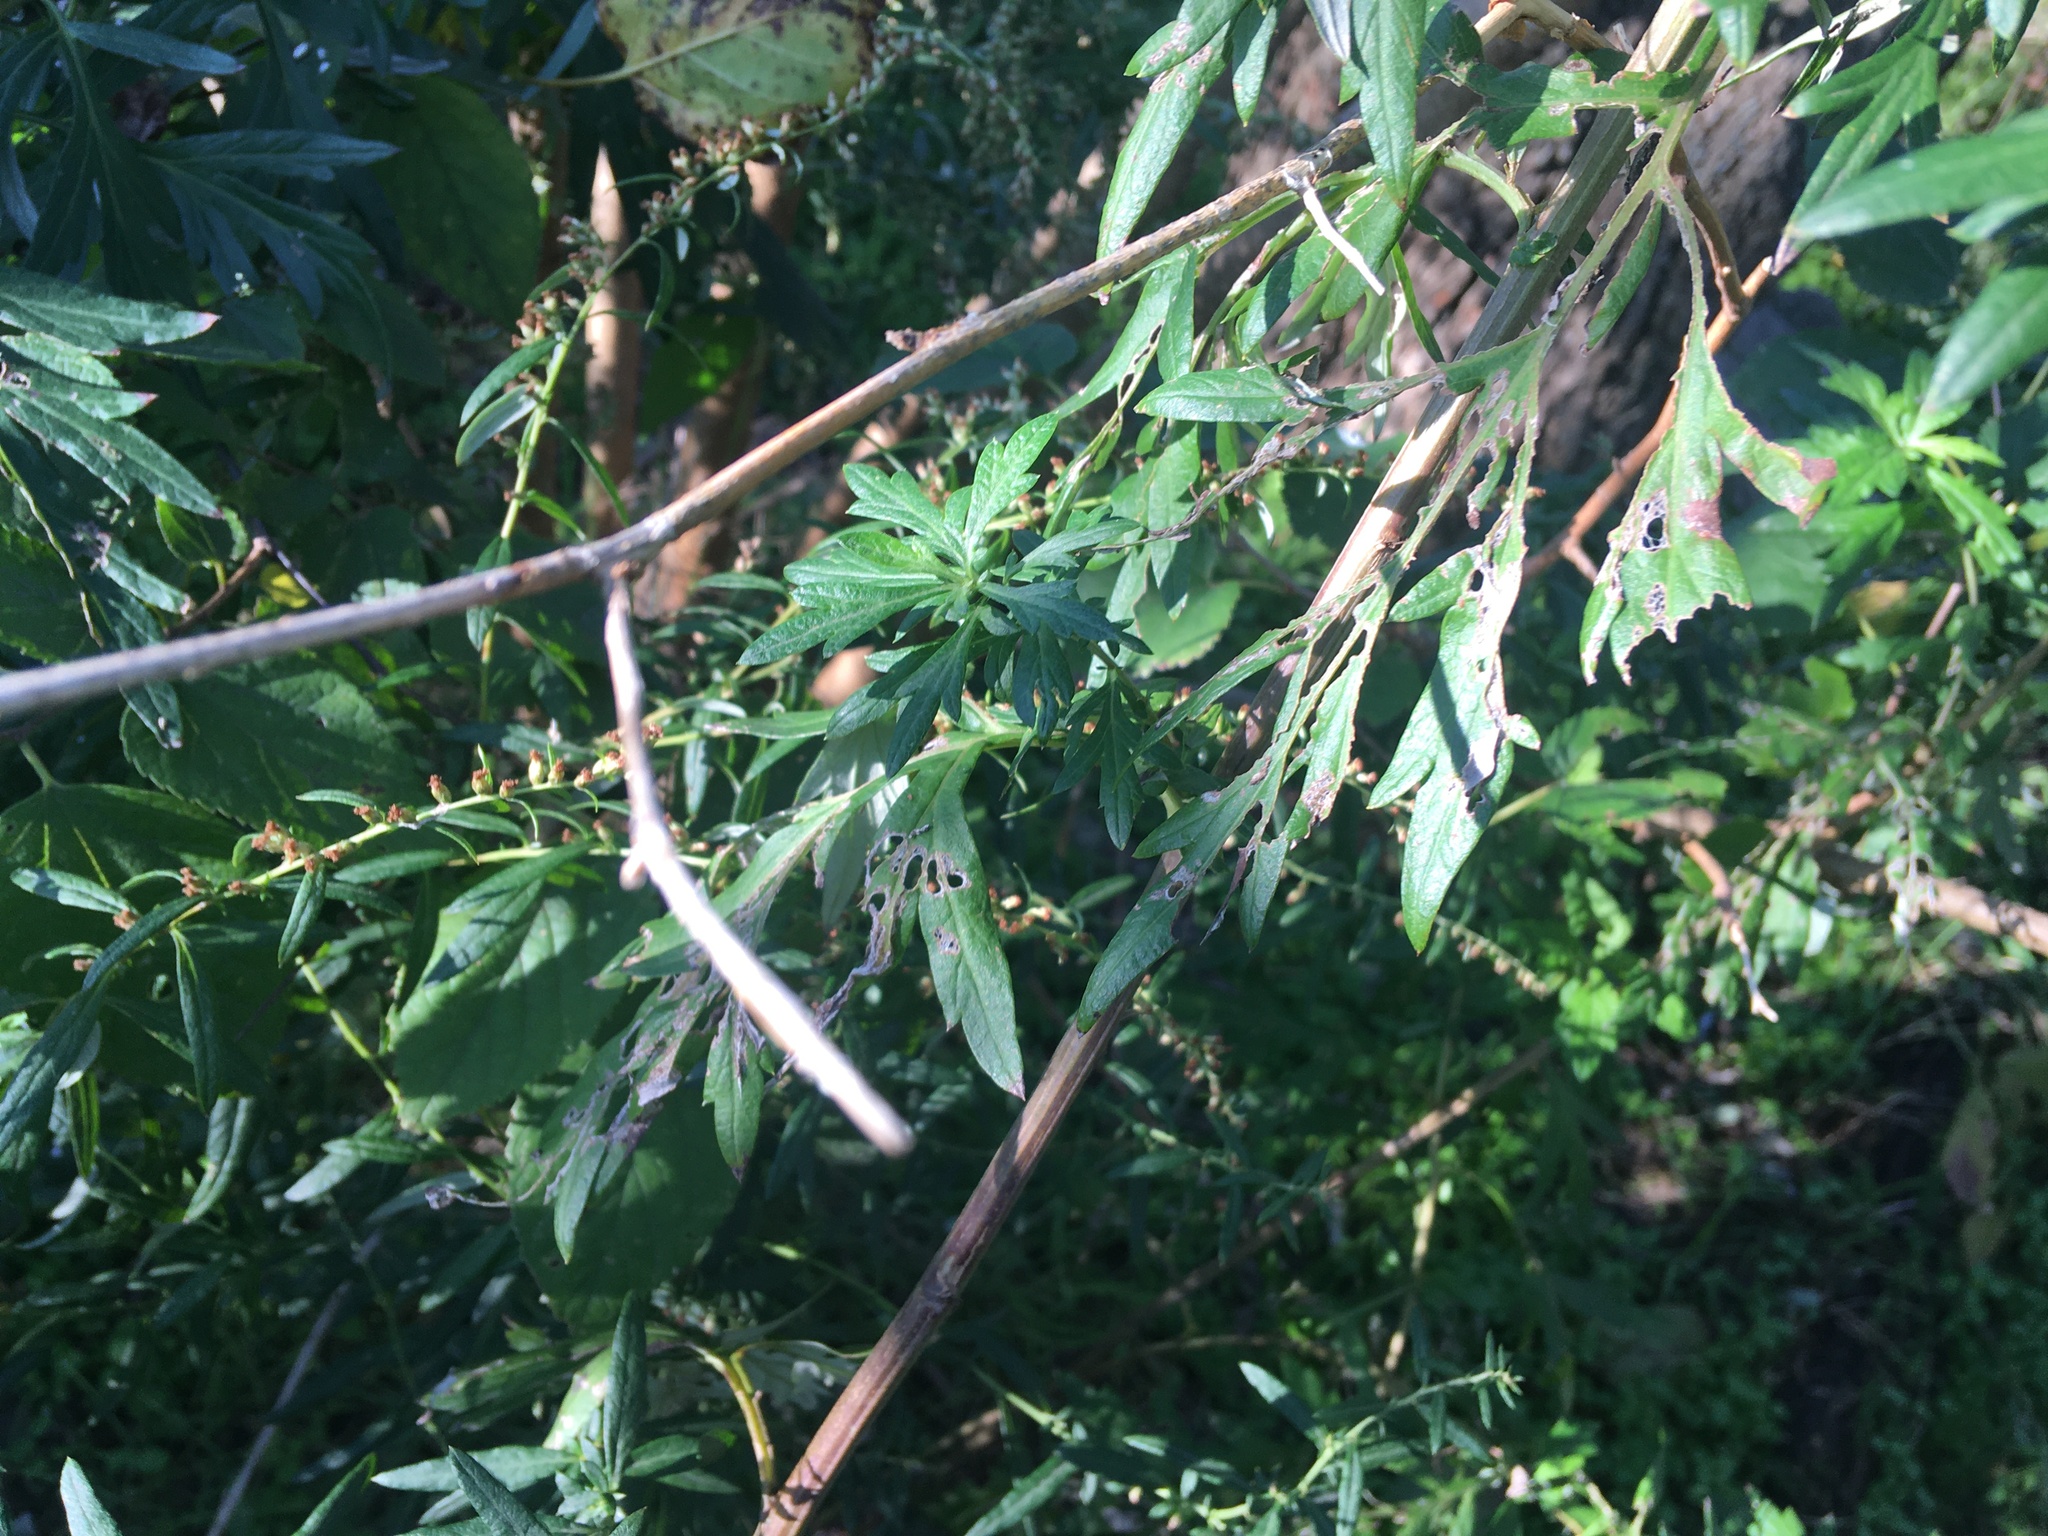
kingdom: Plantae
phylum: Tracheophyta
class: Magnoliopsida
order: Asterales
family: Asteraceae
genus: Artemisia
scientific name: Artemisia vulgaris
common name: Mugwort
